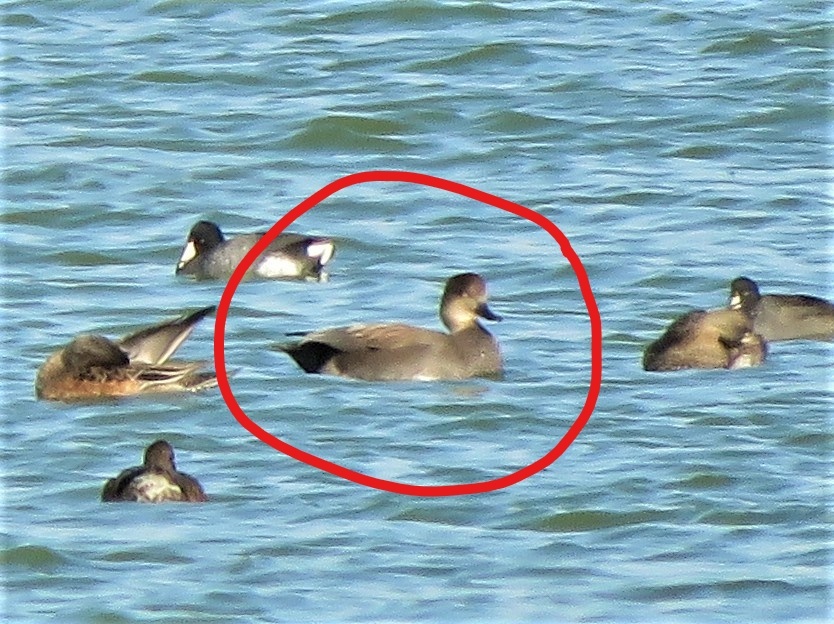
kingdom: Animalia
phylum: Chordata
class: Aves
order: Anseriformes
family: Anatidae
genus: Mareca
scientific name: Mareca strepera
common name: Gadwall
